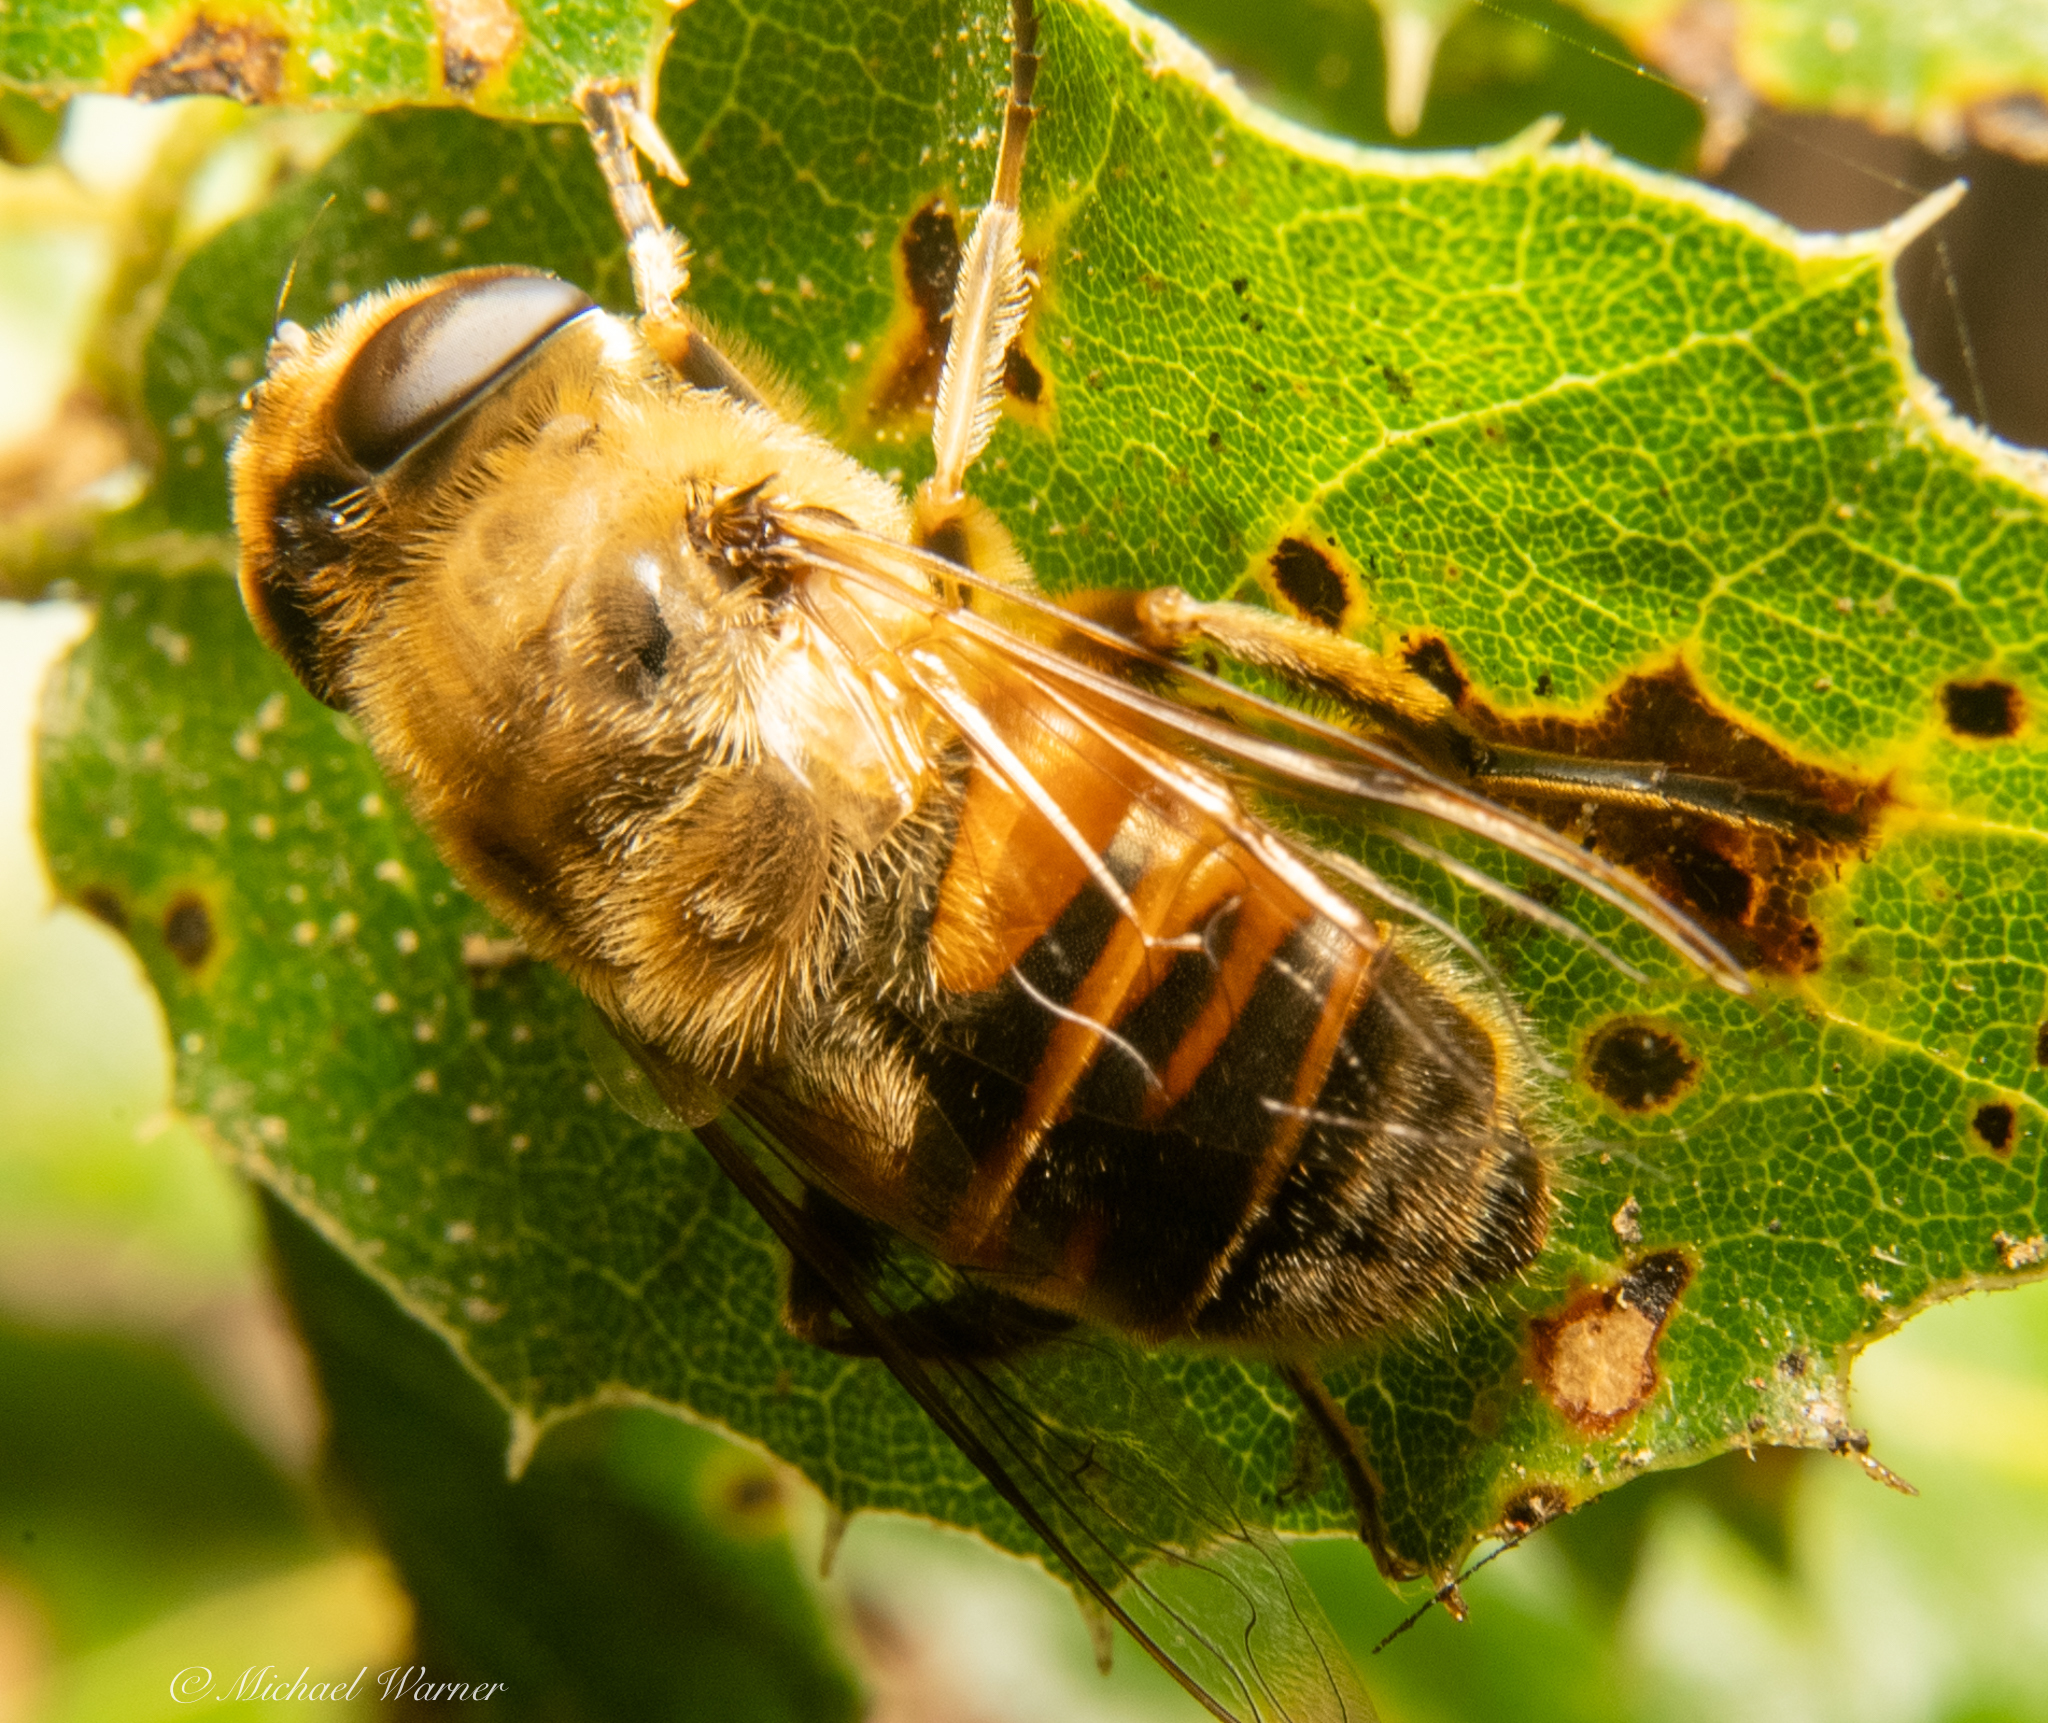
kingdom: Animalia
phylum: Arthropoda
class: Insecta
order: Diptera
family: Syrphidae
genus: Eristalis
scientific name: Eristalis tenax
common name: Drone fly
